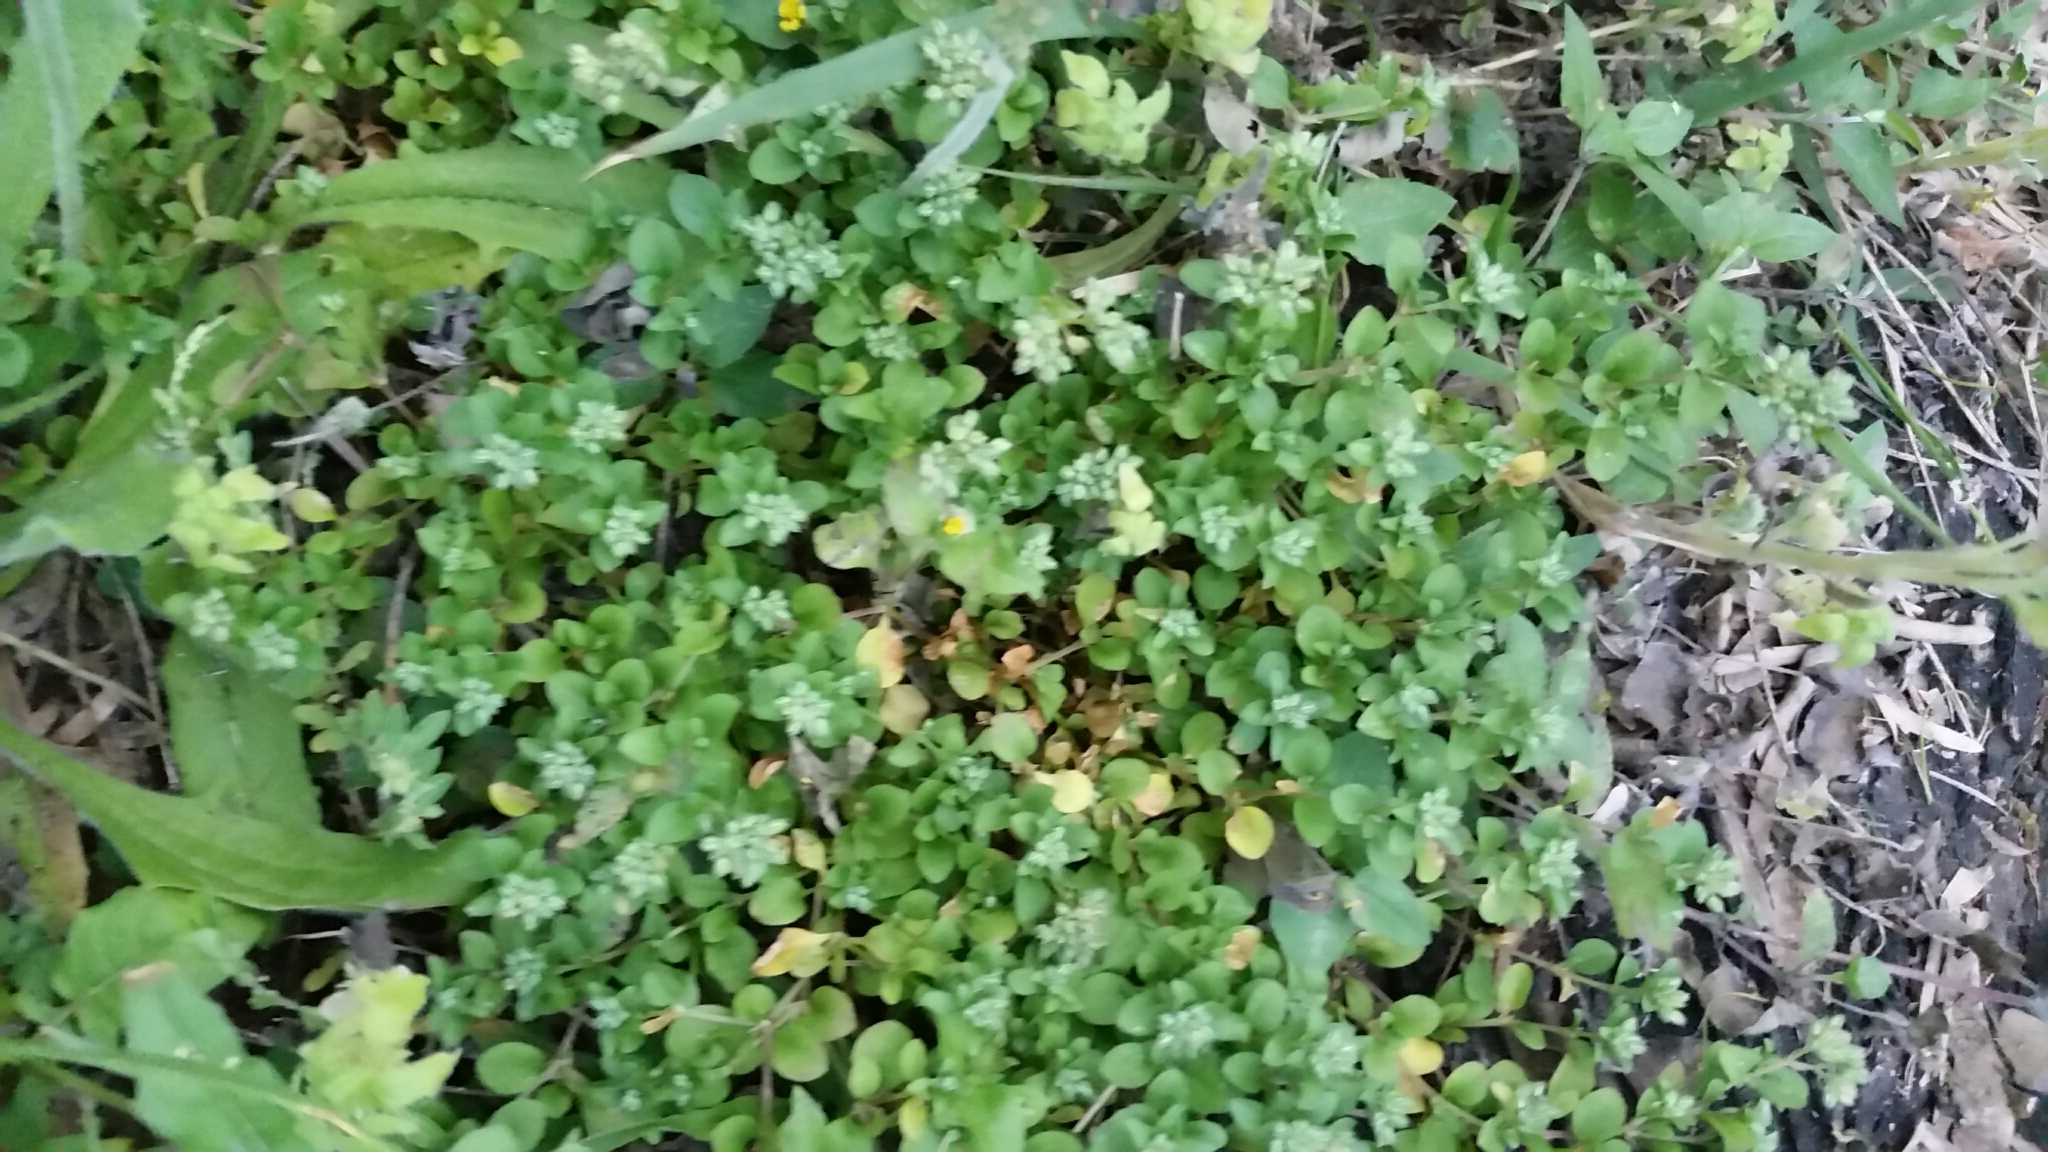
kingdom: Plantae
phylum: Tracheophyta
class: Magnoliopsida
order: Caryophyllales
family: Caryophyllaceae
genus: Polycarpon
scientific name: Polycarpon tetraphyllum
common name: Four-leaved all-seed
